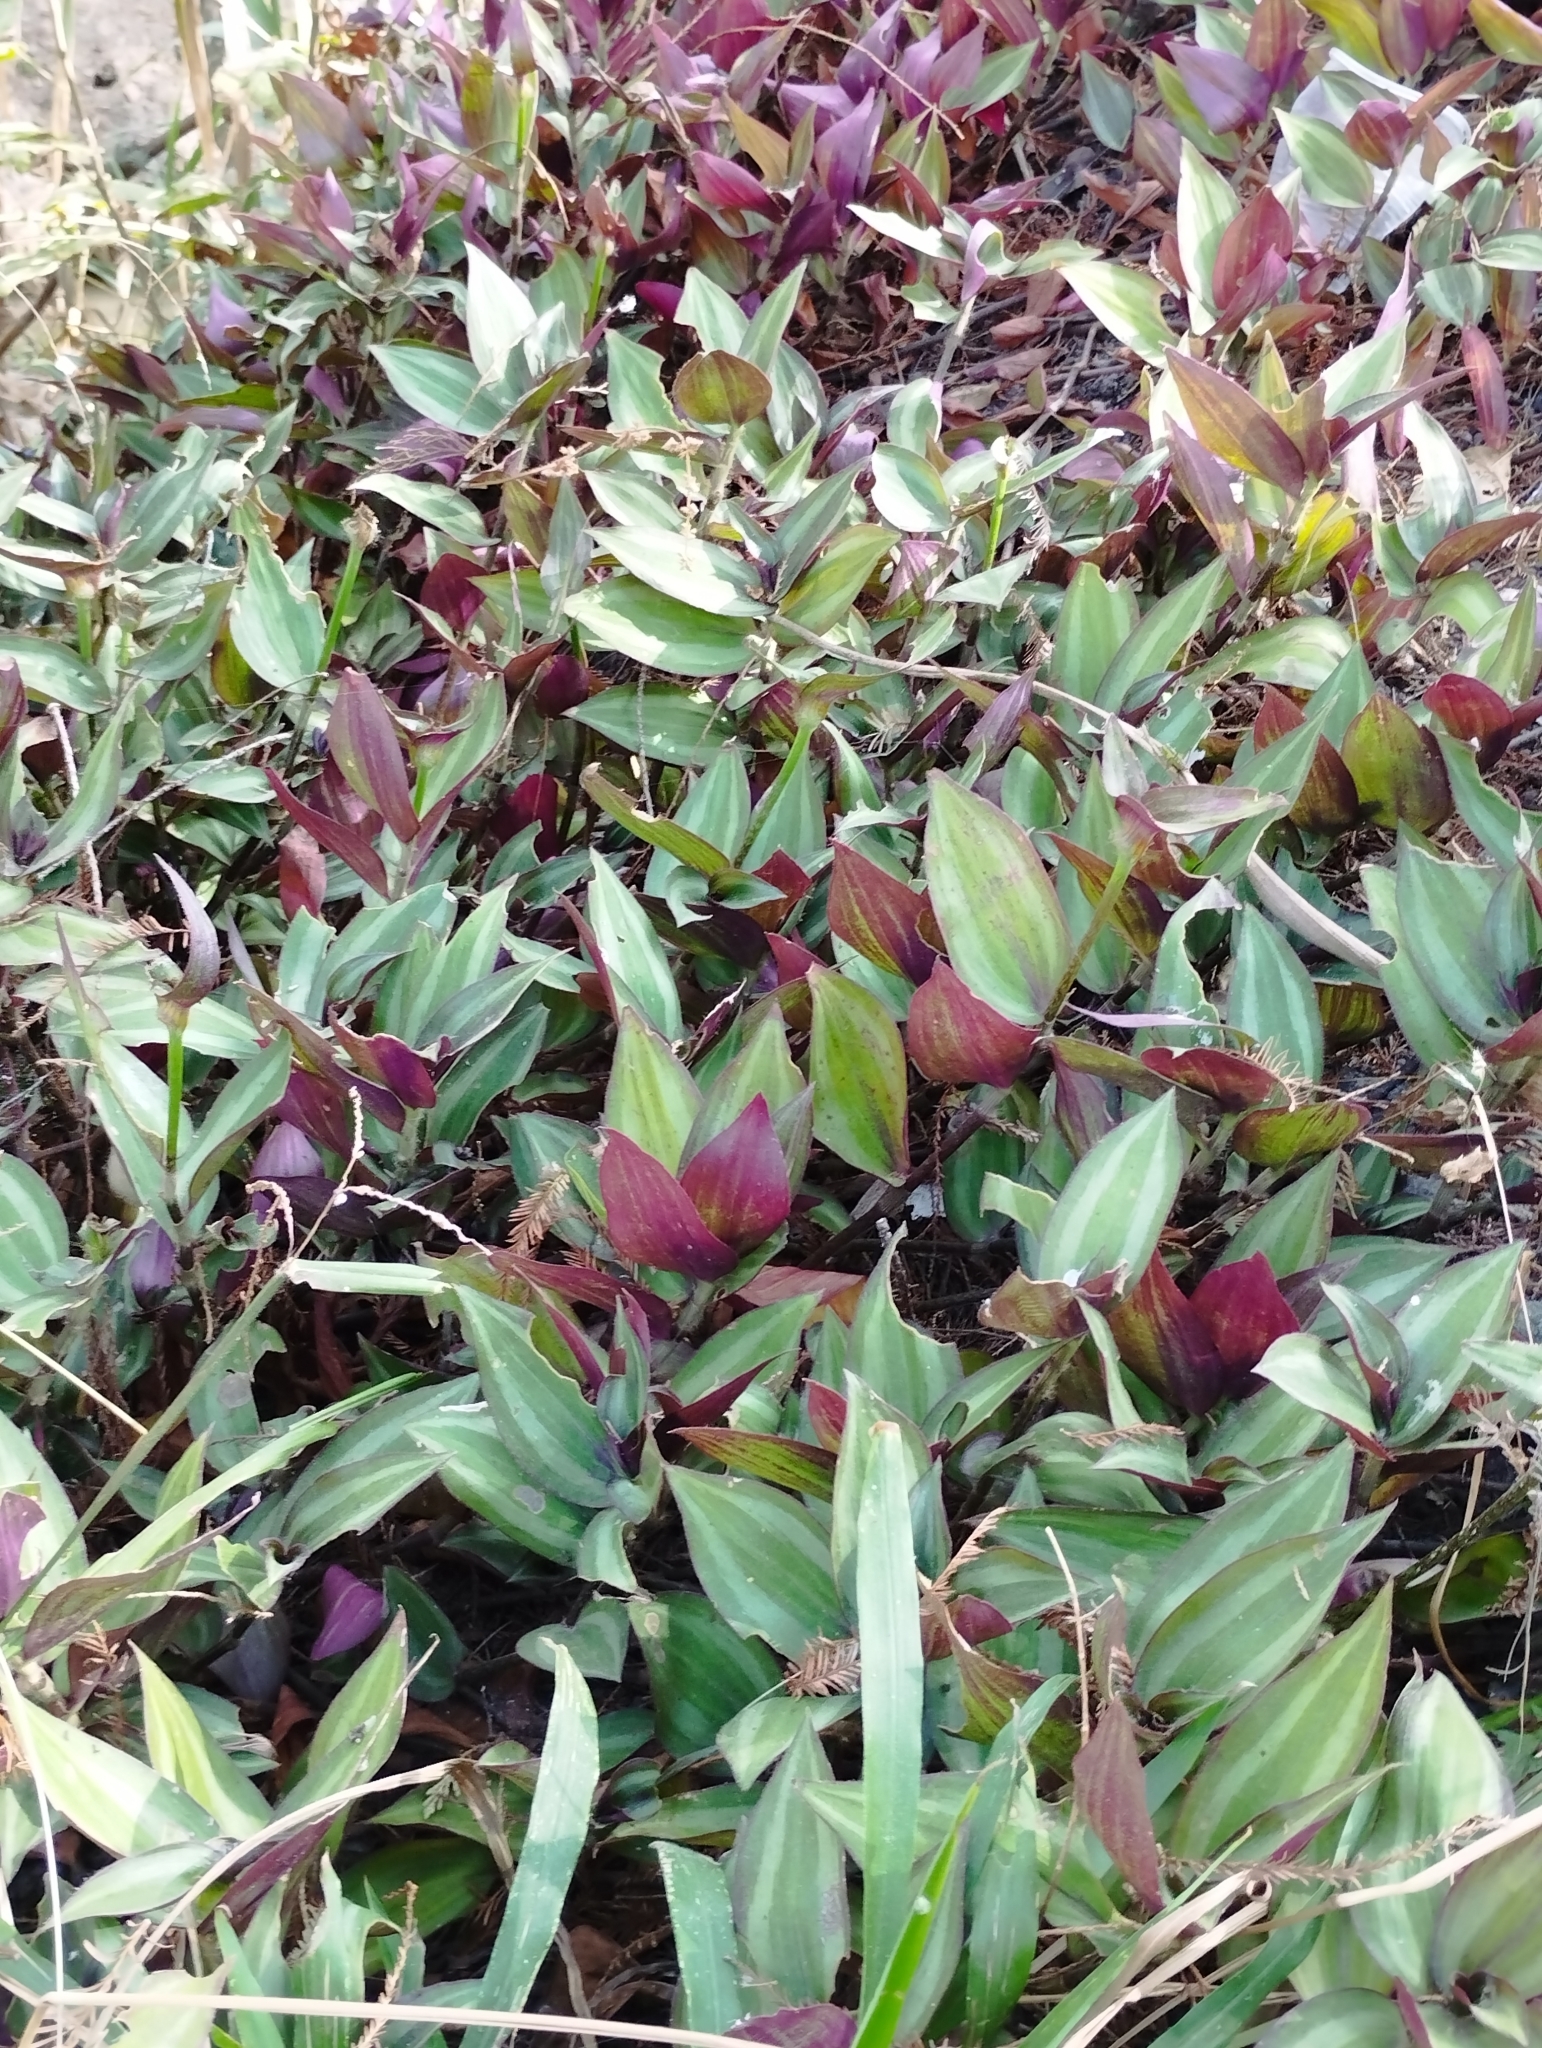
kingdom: Plantae
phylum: Tracheophyta
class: Liliopsida
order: Commelinales
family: Commelinaceae
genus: Tradescantia
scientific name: Tradescantia zebrina
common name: Inchplant
